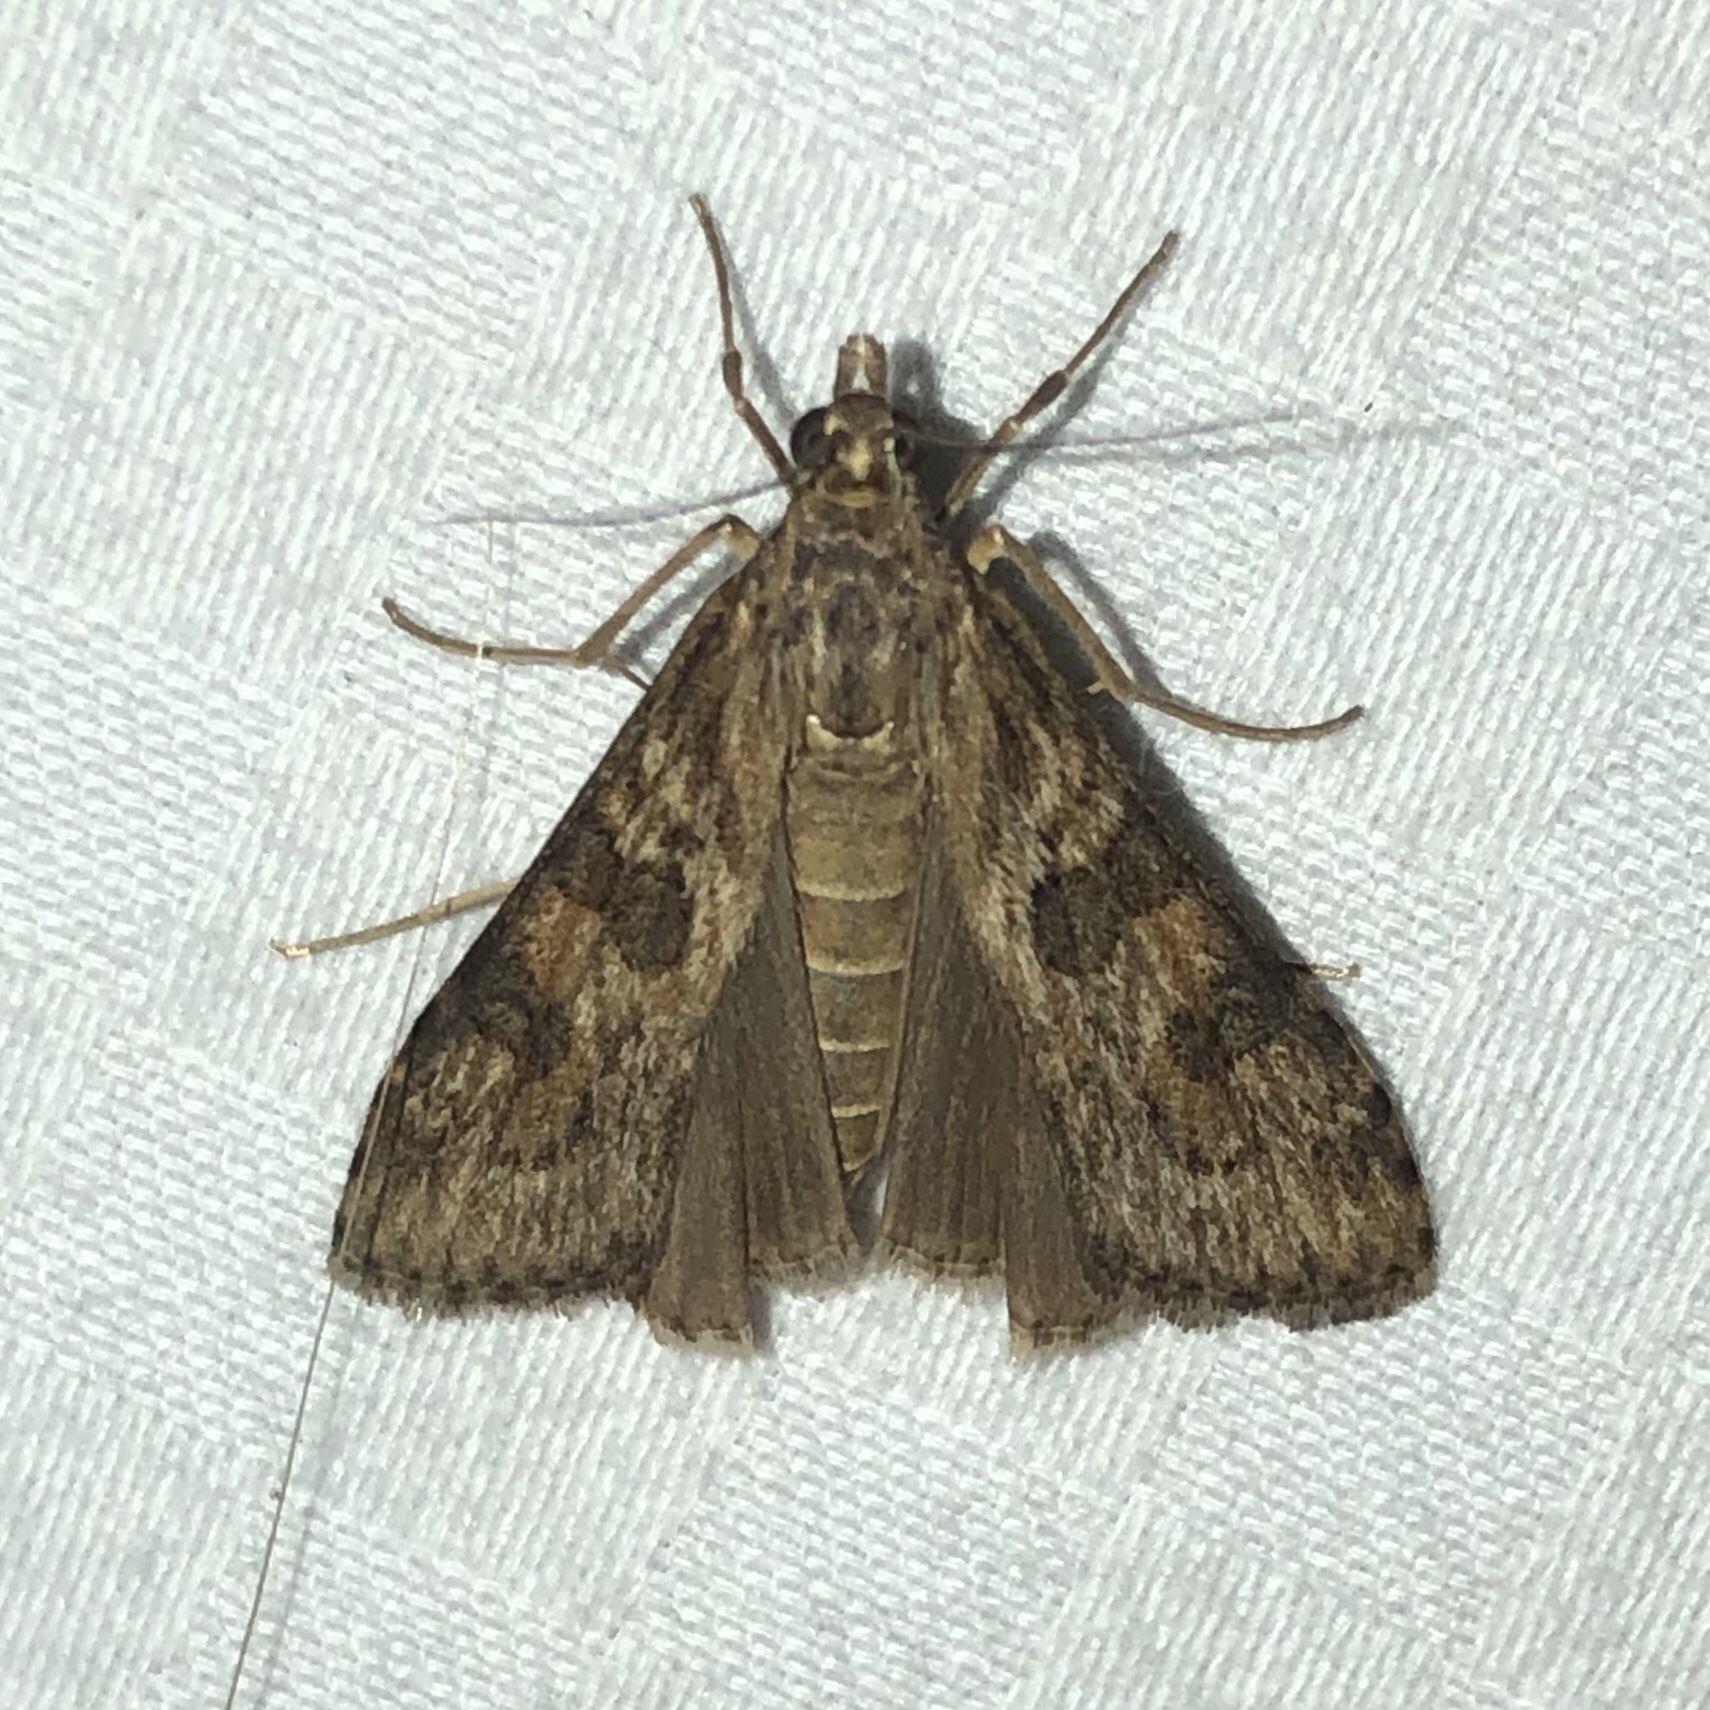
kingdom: Animalia
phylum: Arthropoda
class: Insecta
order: Lepidoptera
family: Crambidae
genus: Nomophila
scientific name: Nomophila nearctica
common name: American rush veneer
